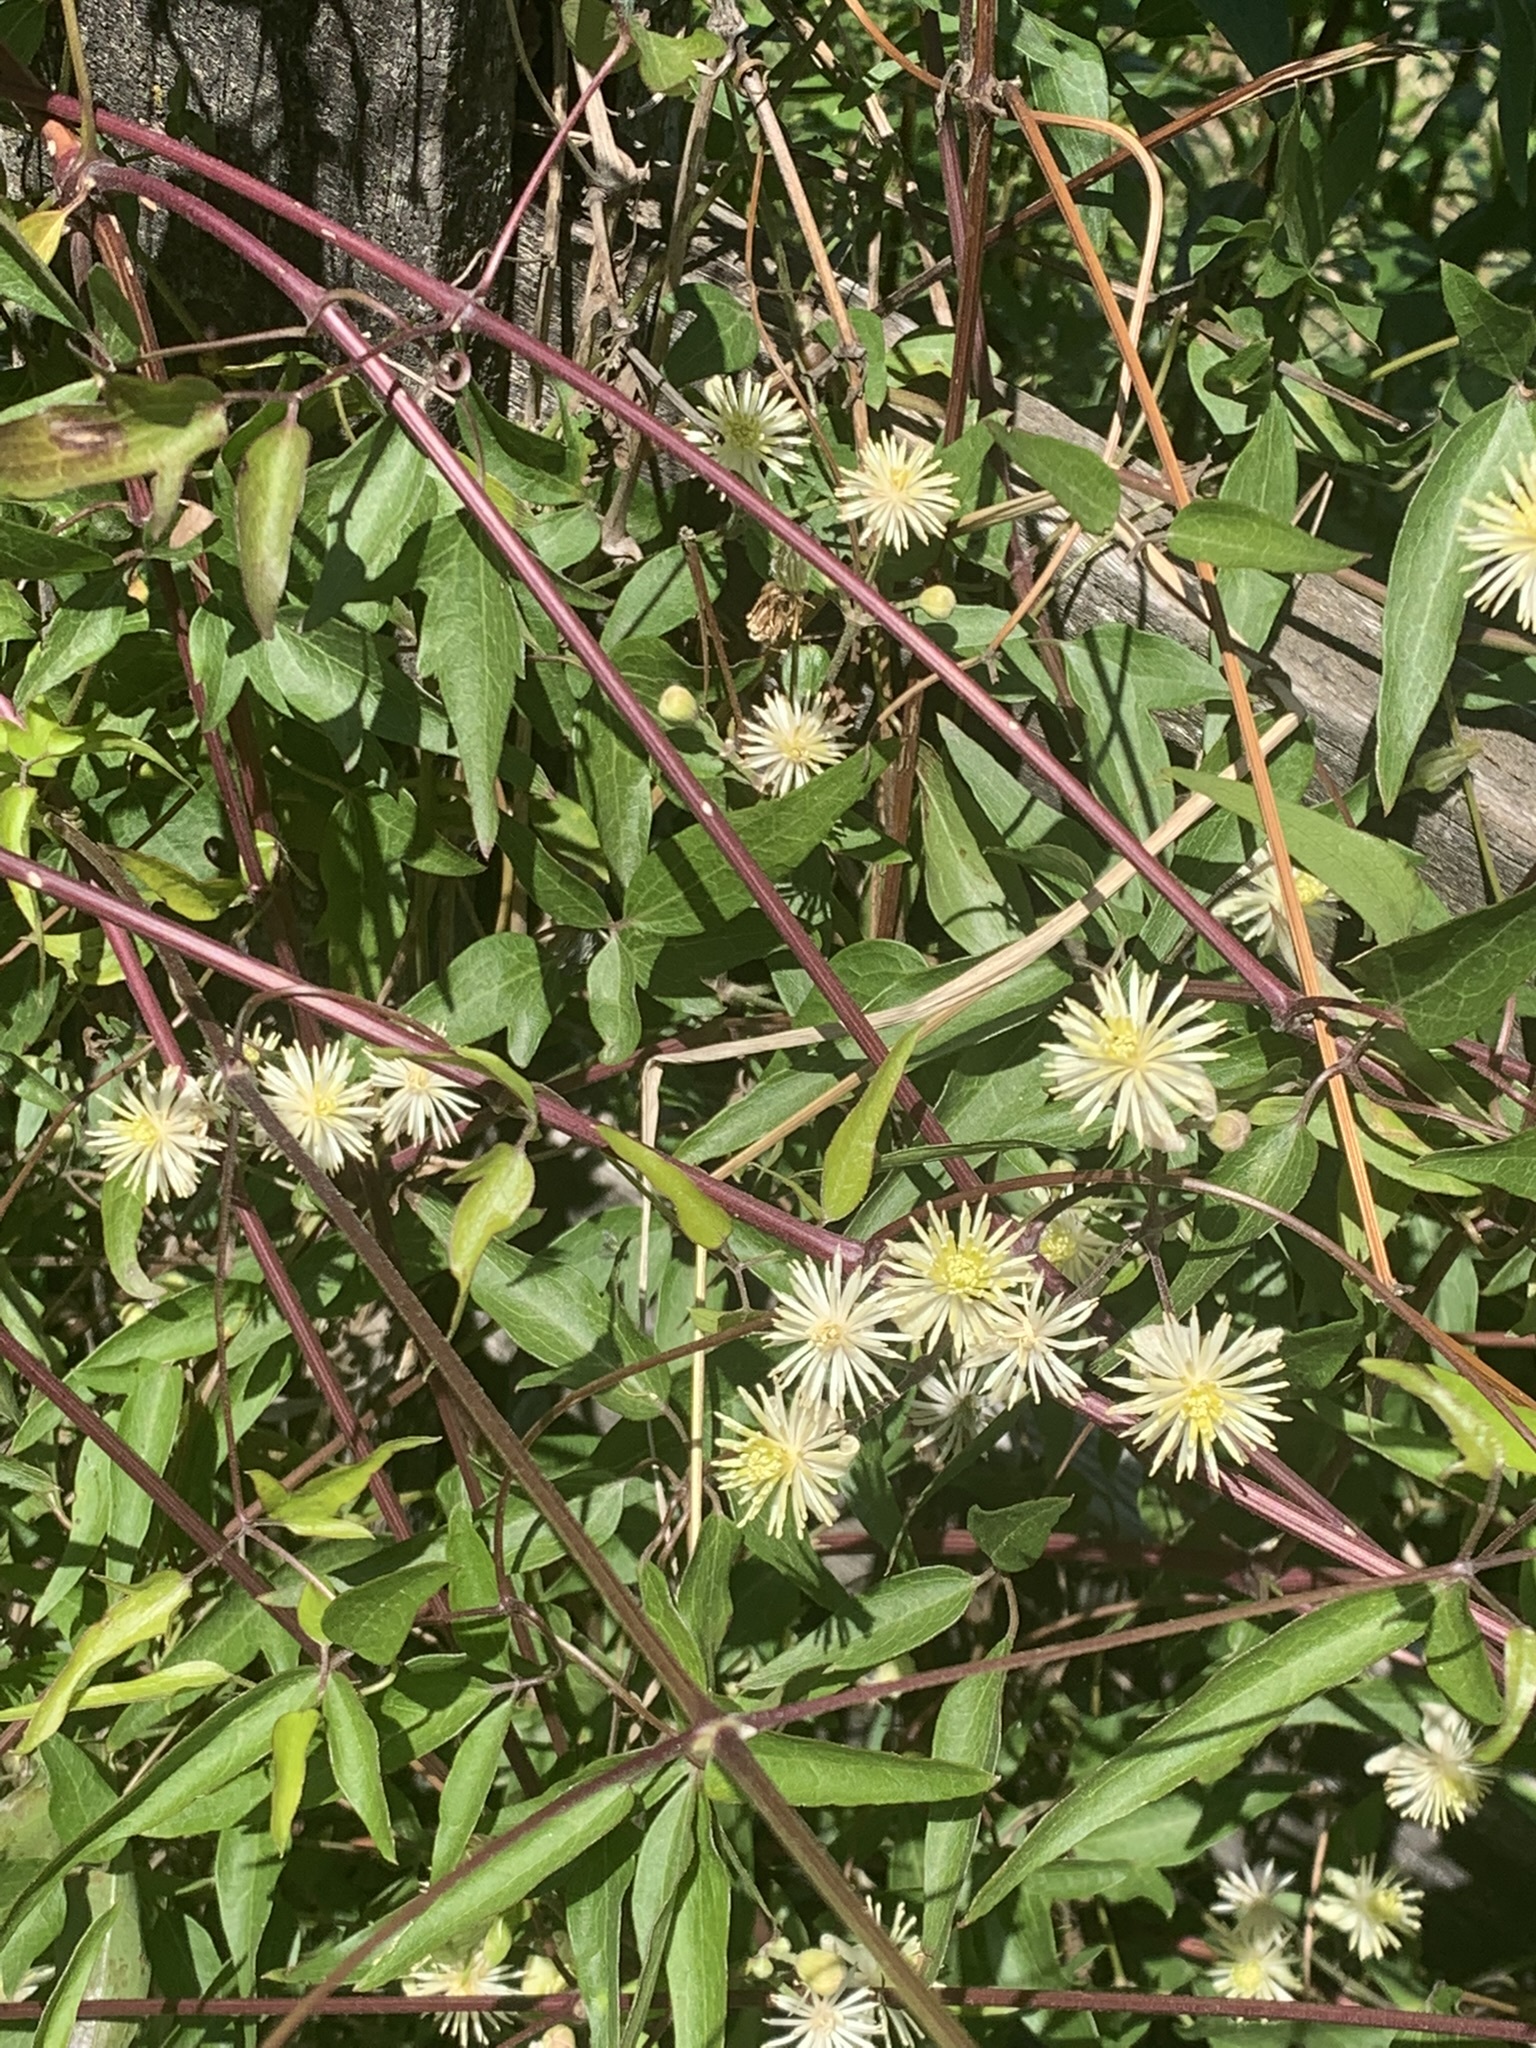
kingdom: Plantae
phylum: Tracheophyta
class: Magnoliopsida
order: Ranunculales
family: Ranunculaceae
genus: Clematis
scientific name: Clematis montevidensis
